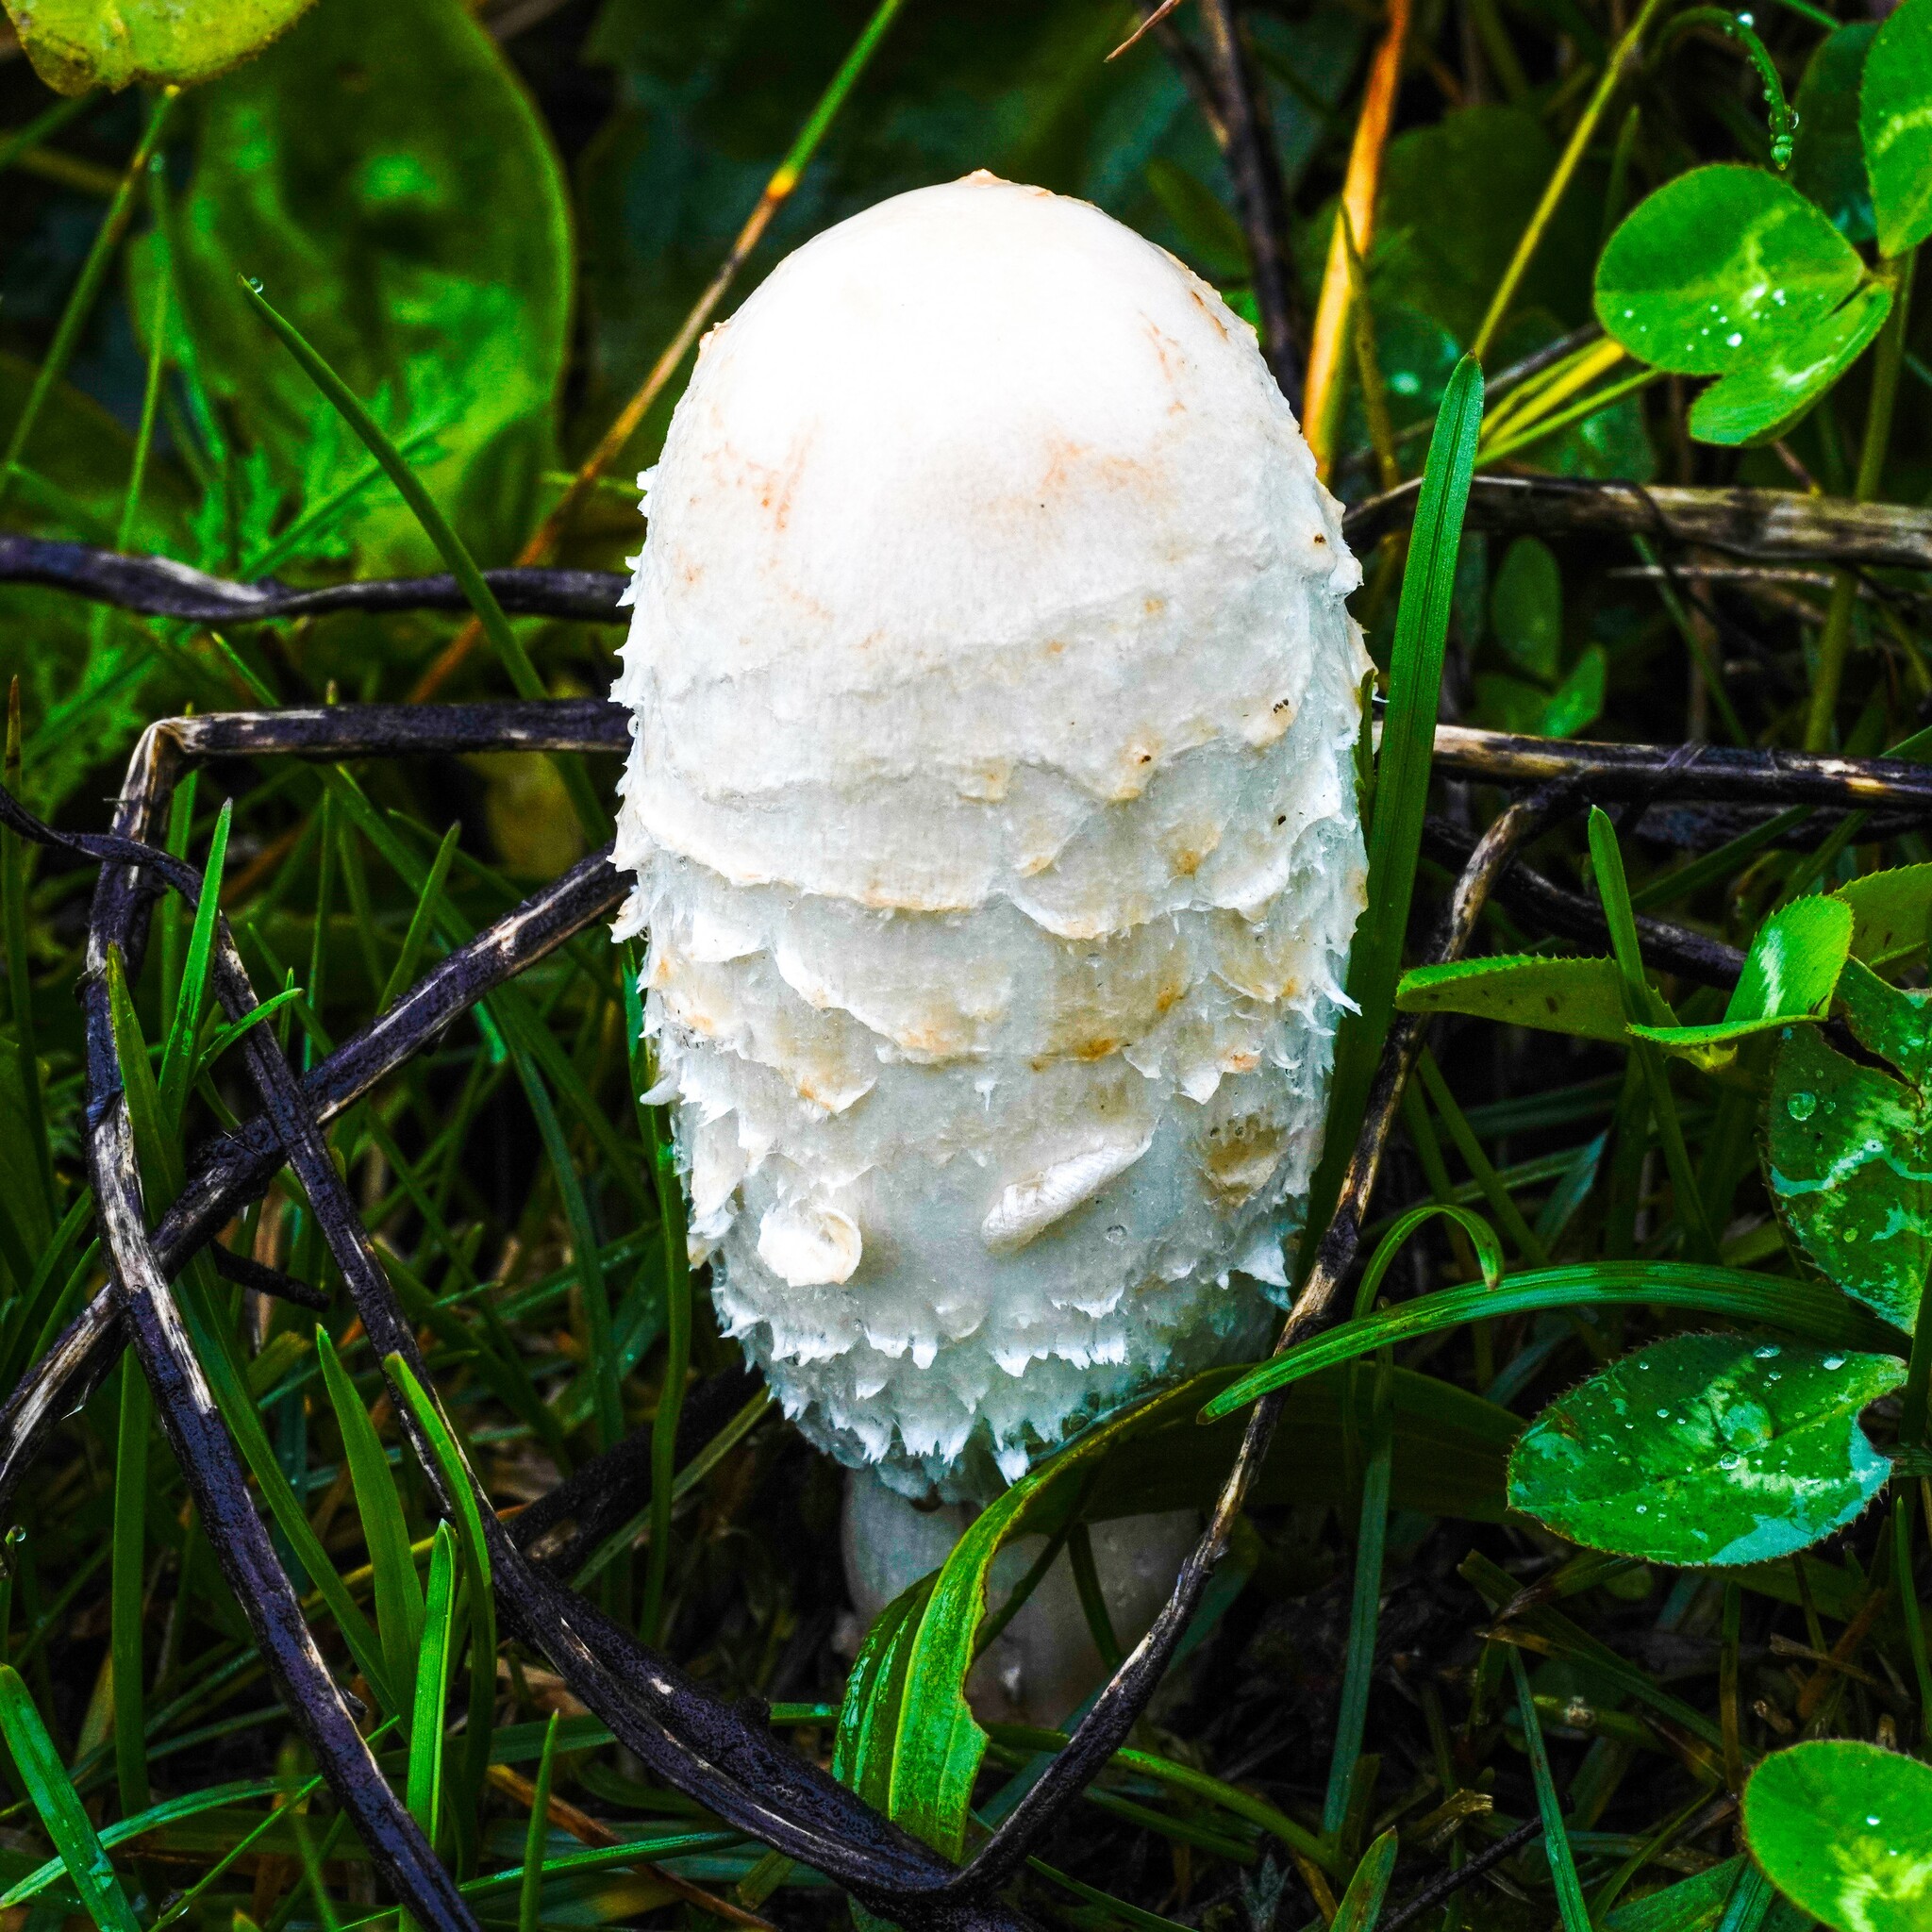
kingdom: Fungi
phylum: Basidiomycota
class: Agaricomycetes
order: Agaricales
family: Agaricaceae
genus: Coprinus
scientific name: Coprinus comatus
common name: Lawyer's wig
